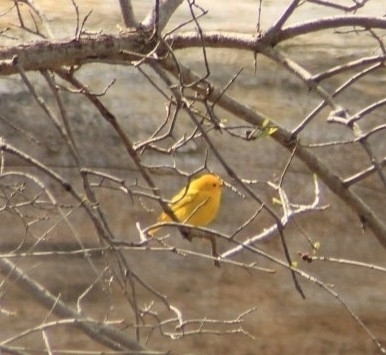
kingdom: Animalia
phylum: Chordata
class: Aves
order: Passeriformes
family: Parulidae
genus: Setophaga
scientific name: Setophaga petechia
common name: Yellow warbler
